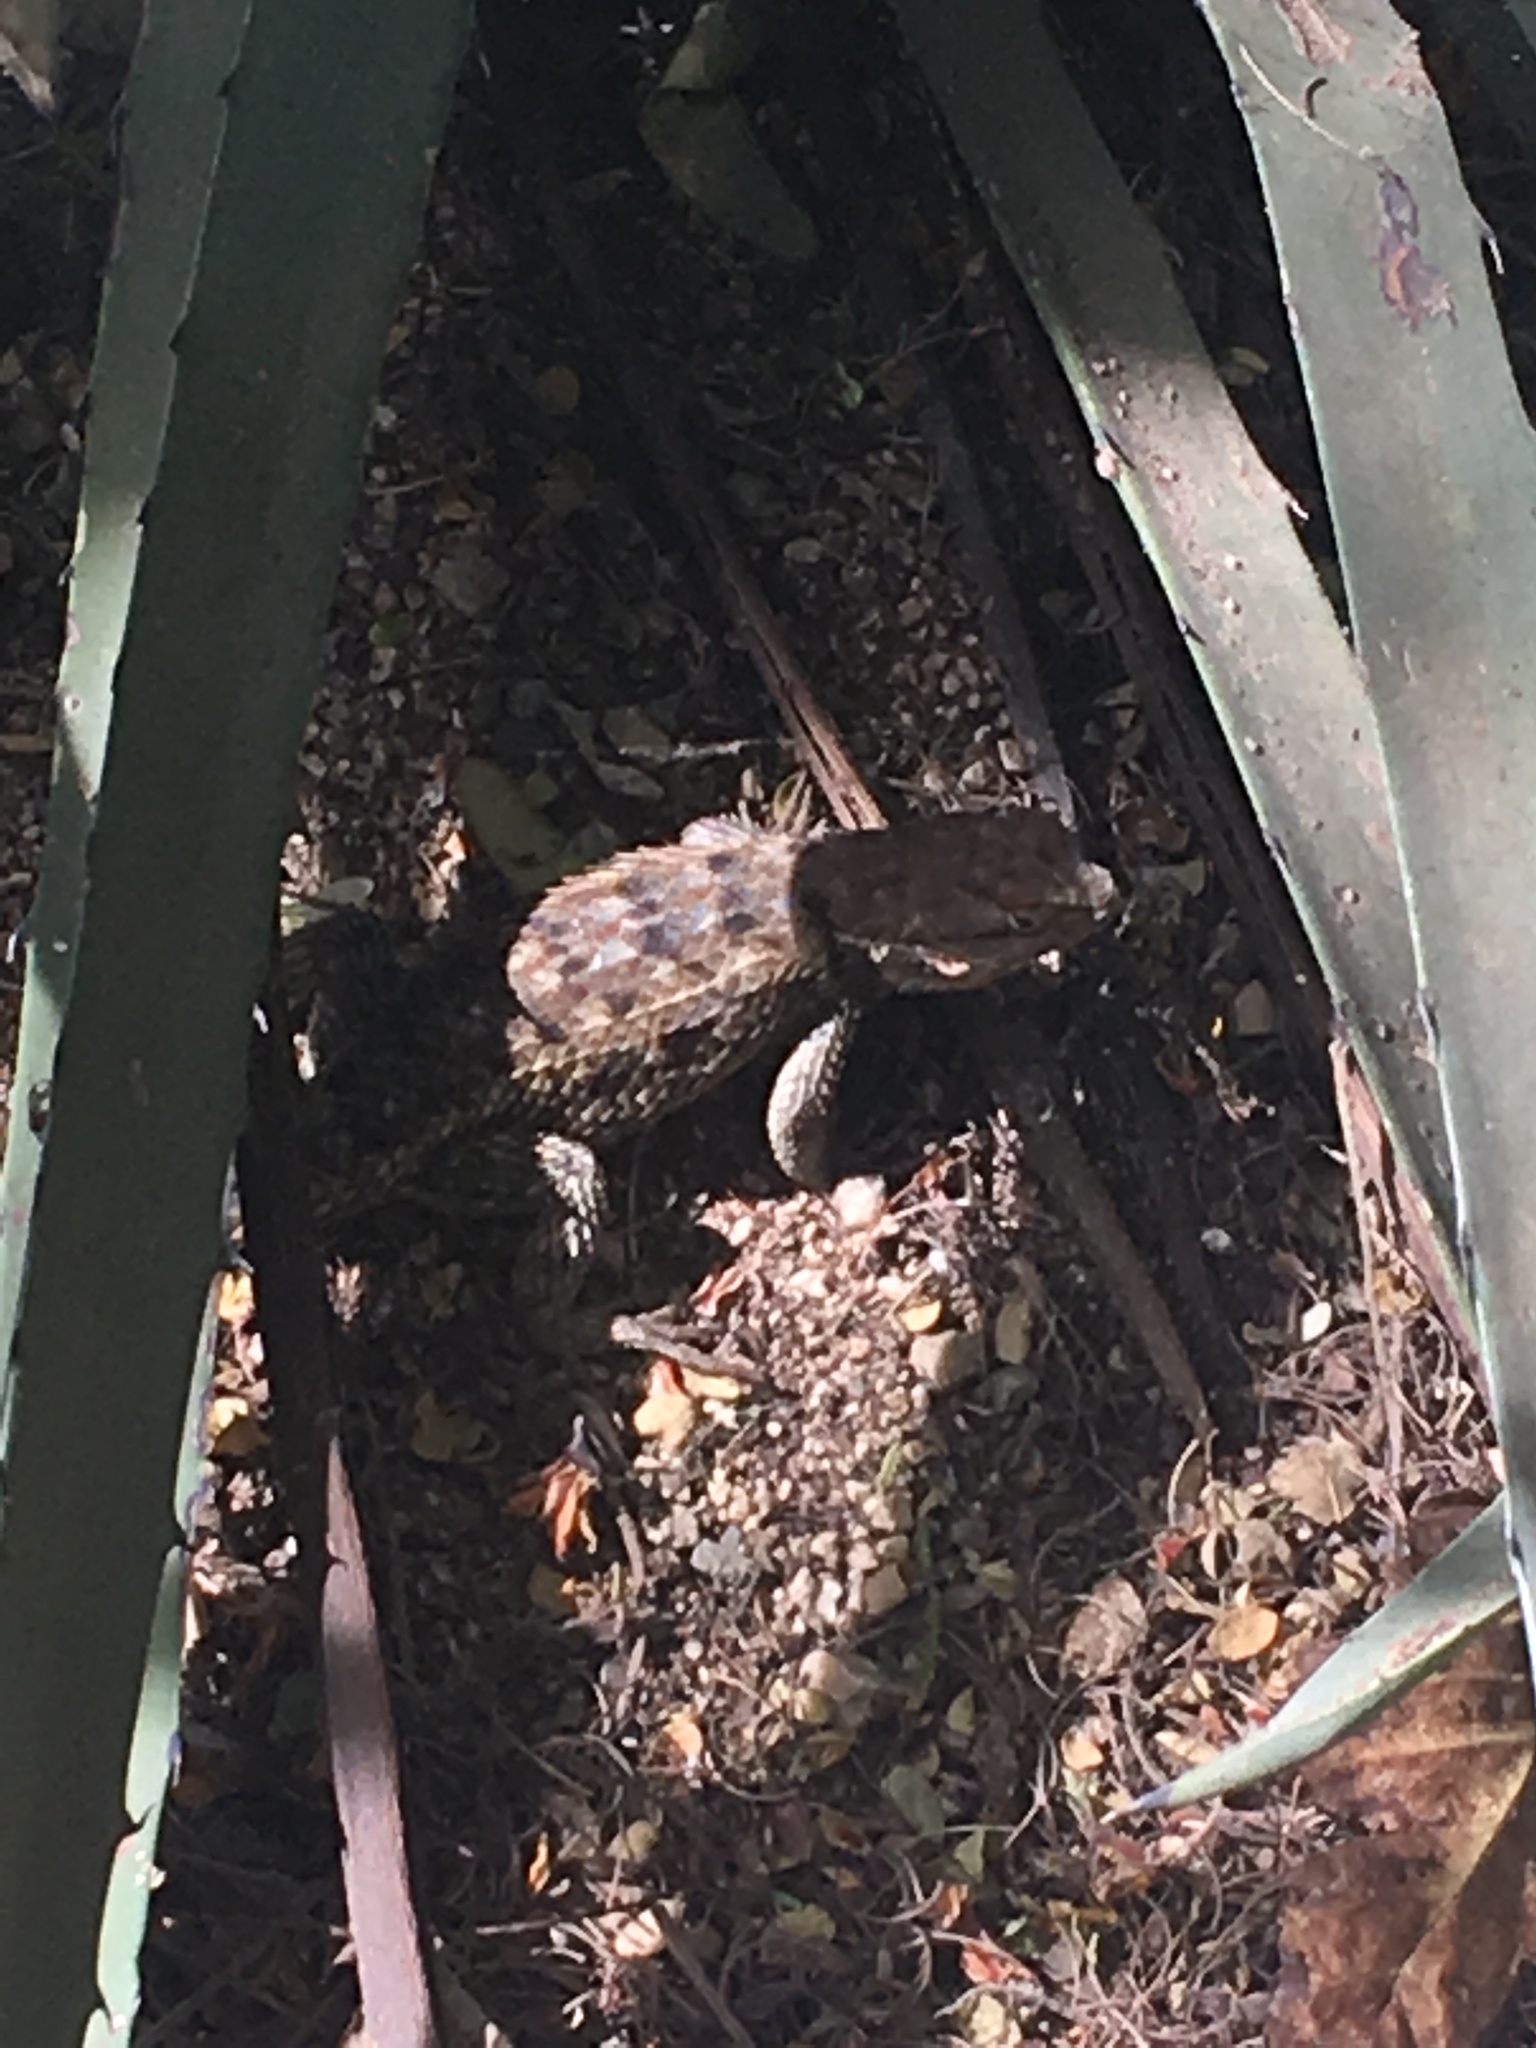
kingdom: Animalia
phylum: Chordata
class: Squamata
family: Phrynosomatidae
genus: Sceloporus
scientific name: Sceloporus magister
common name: Desert spiny lizard
